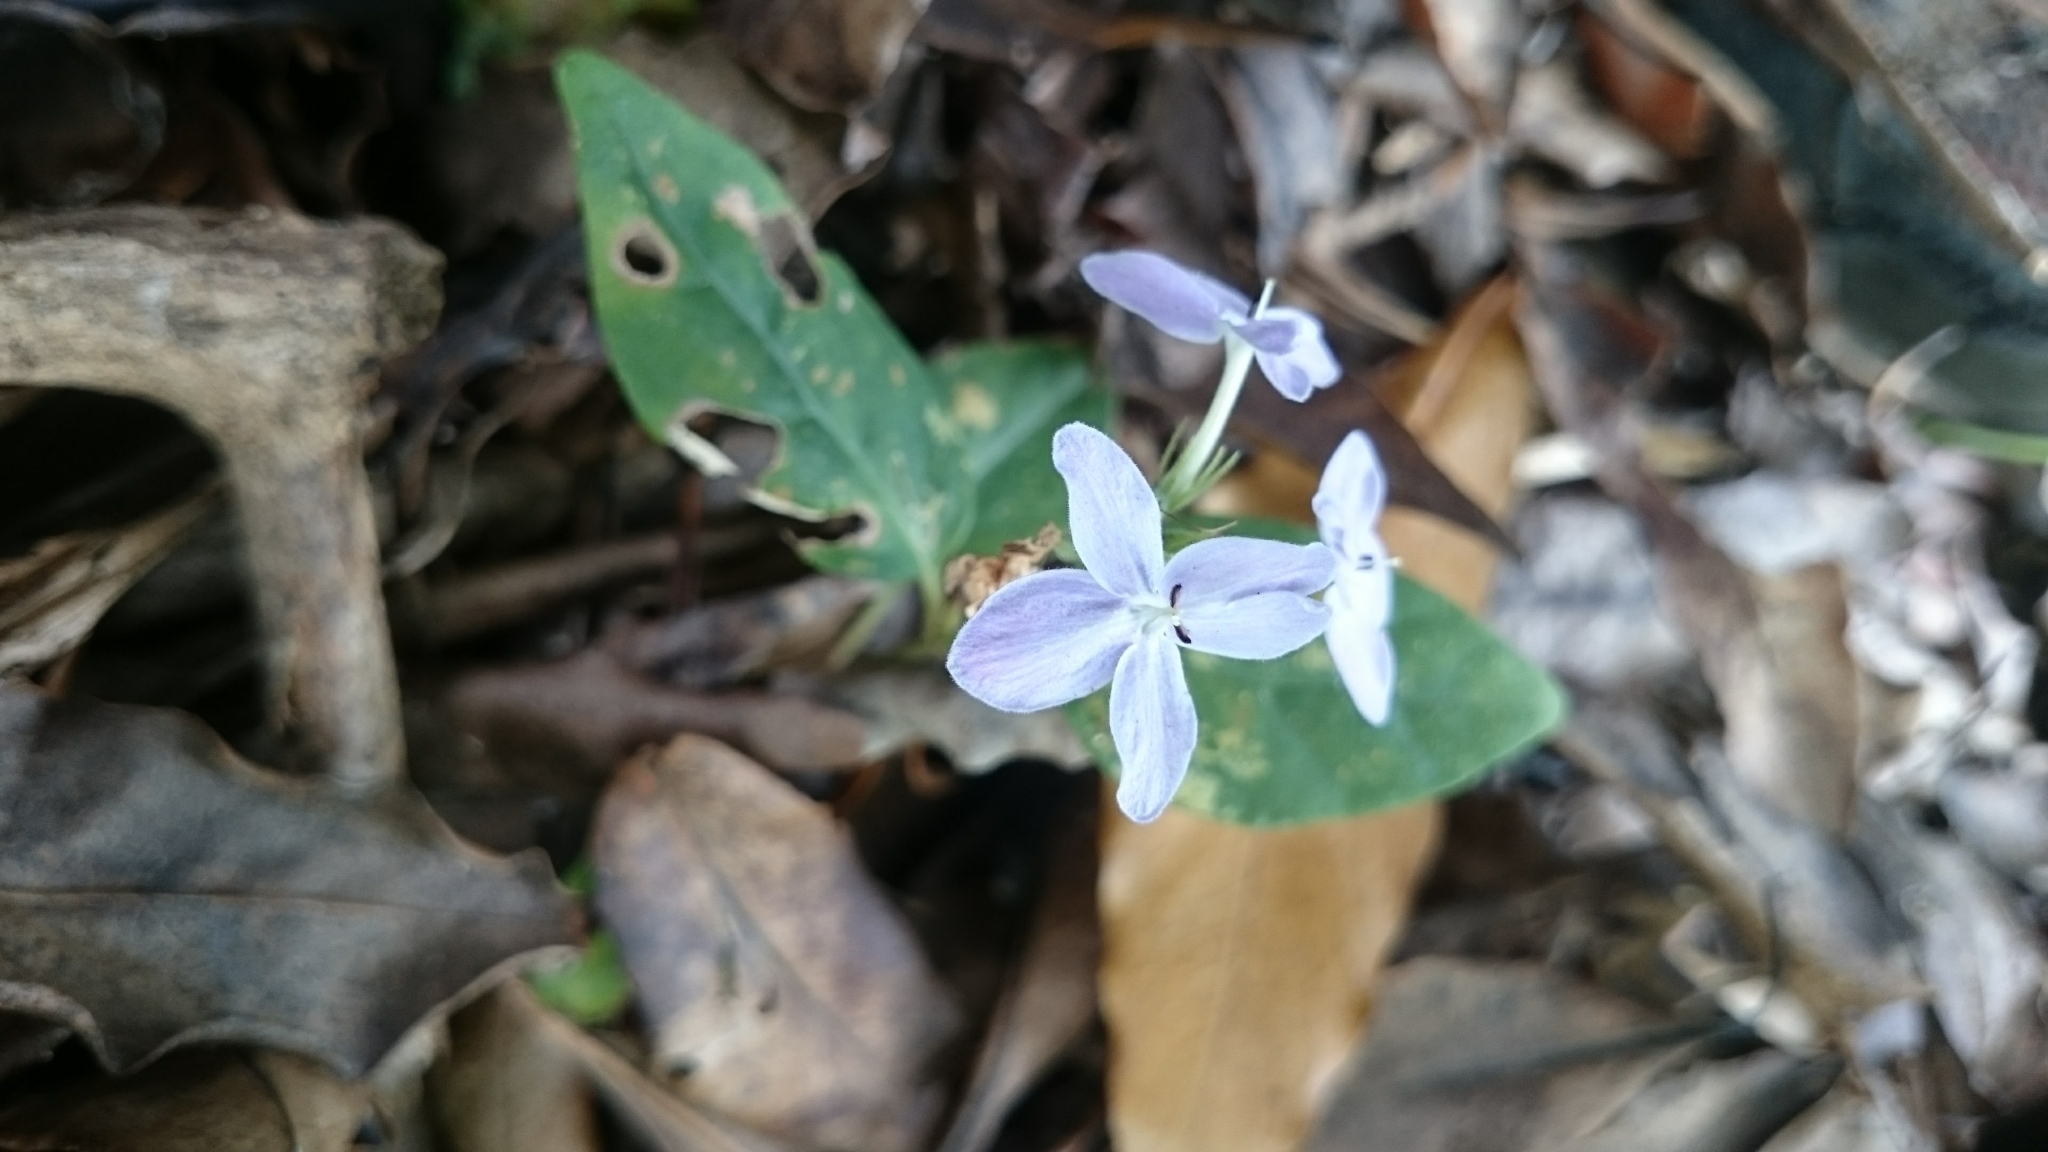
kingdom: Plantae
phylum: Tracheophyta
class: Magnoliopsida
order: Lamiales
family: Acanthaceae
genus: Pseuderanthemum
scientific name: Pseuderanthemum variabile
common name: Night and afternoon
